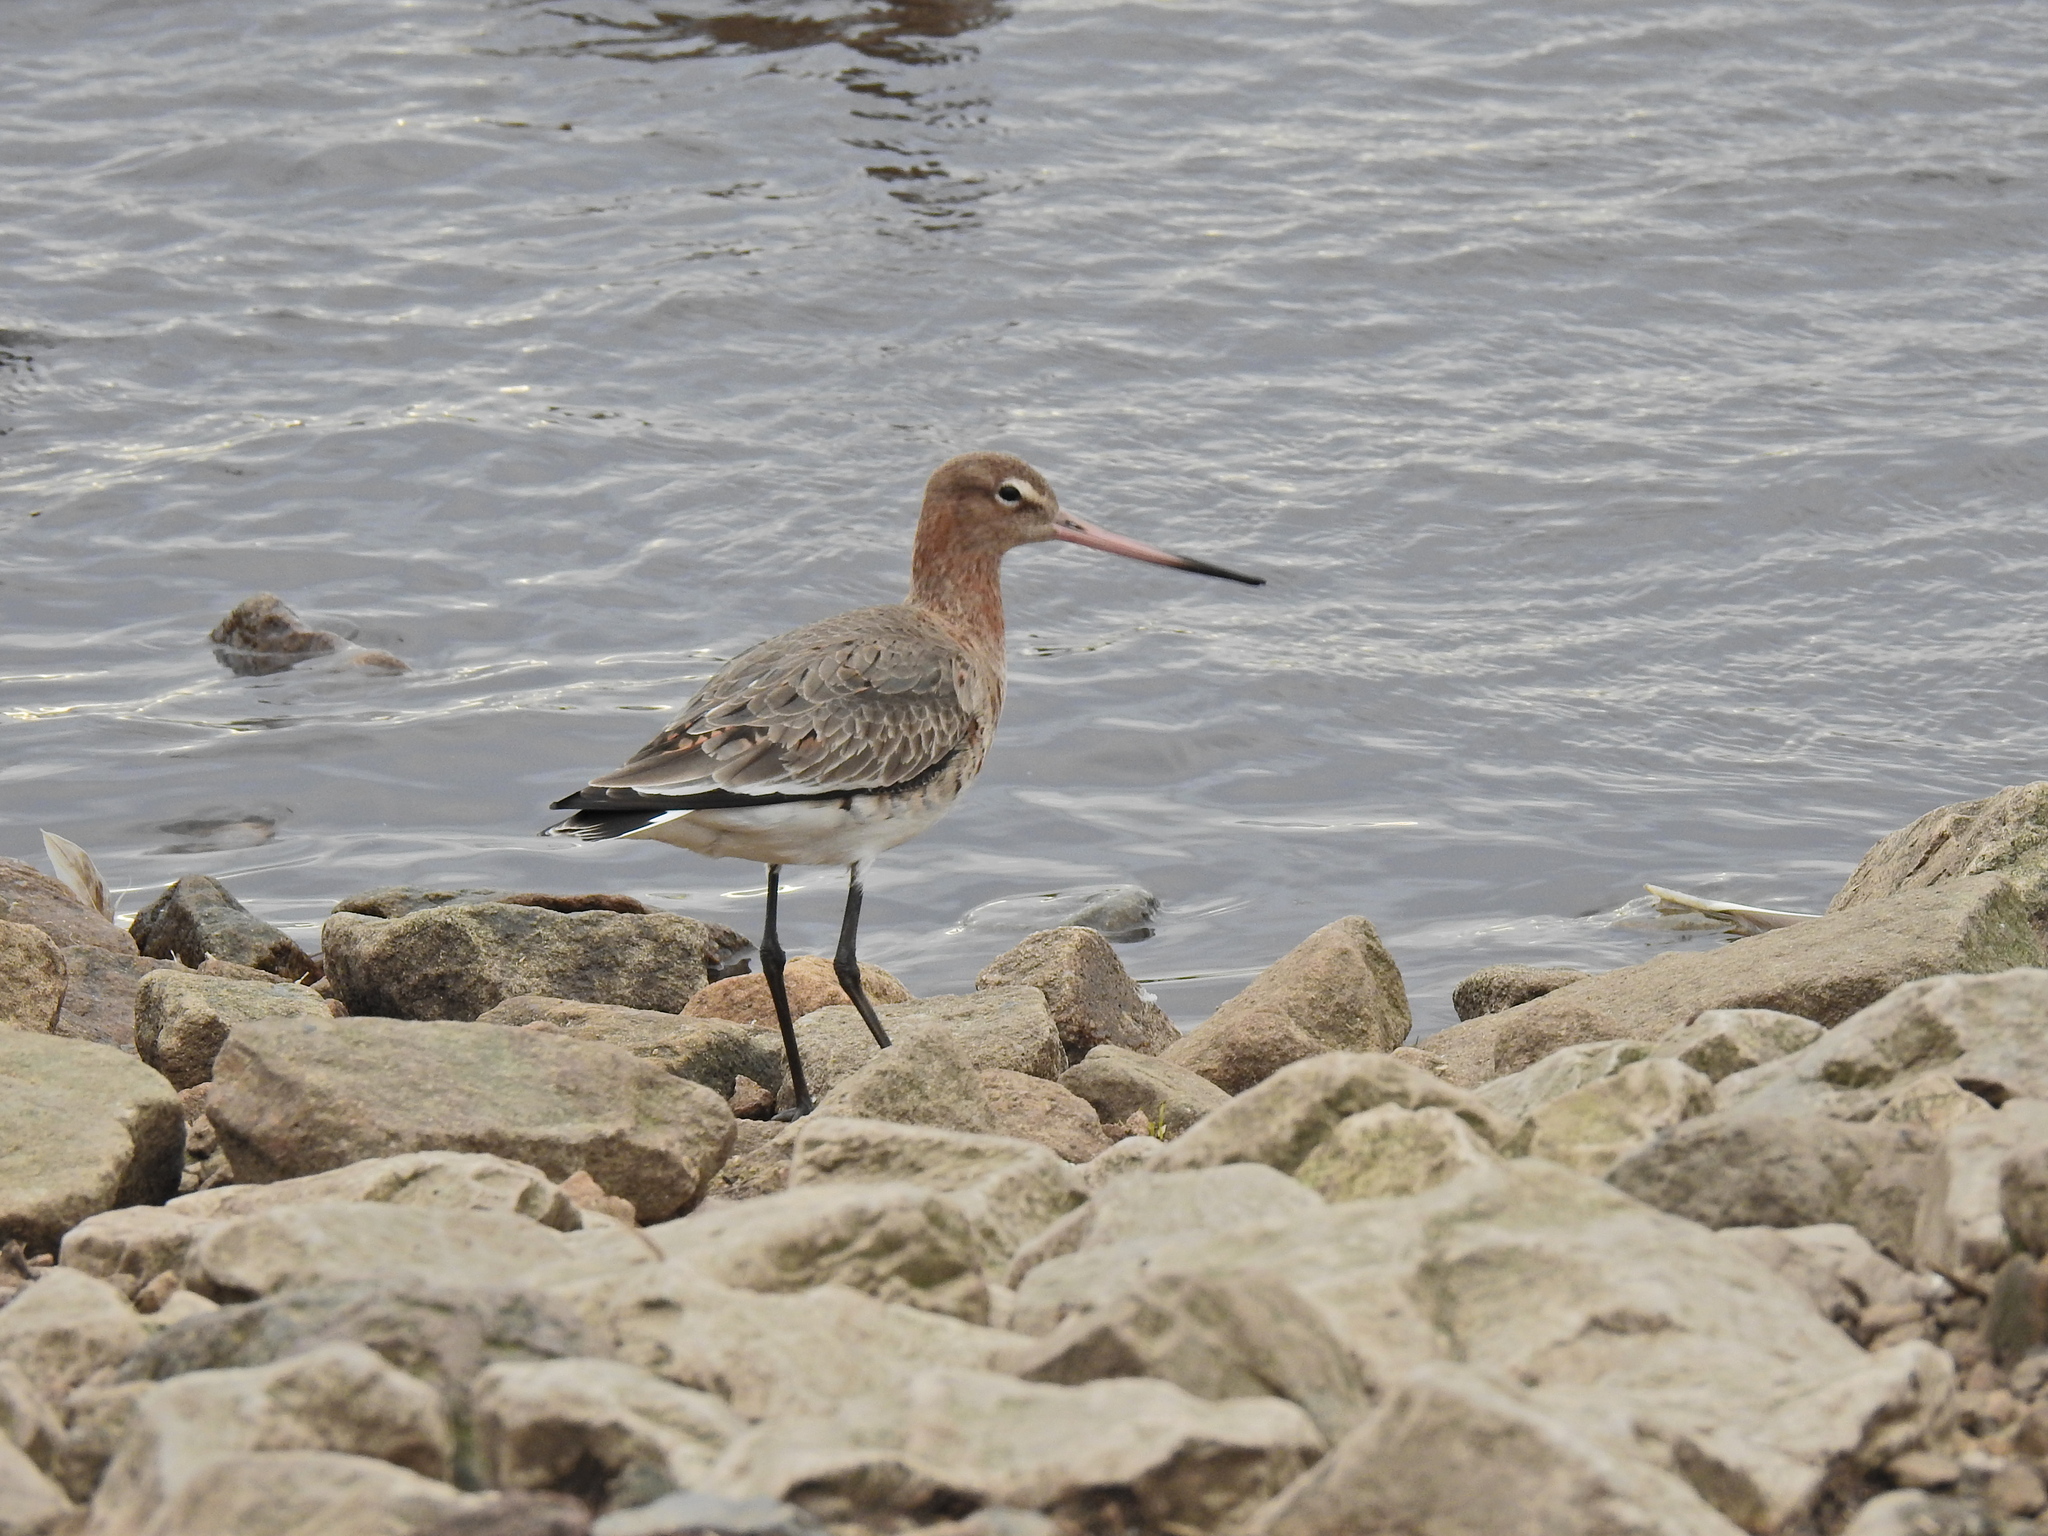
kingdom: Animalia
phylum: Chordata
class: Aves
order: Charadriiformes
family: Scolopacidae
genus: Limosa
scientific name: Limosa limosa
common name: Black-tailed godwit
